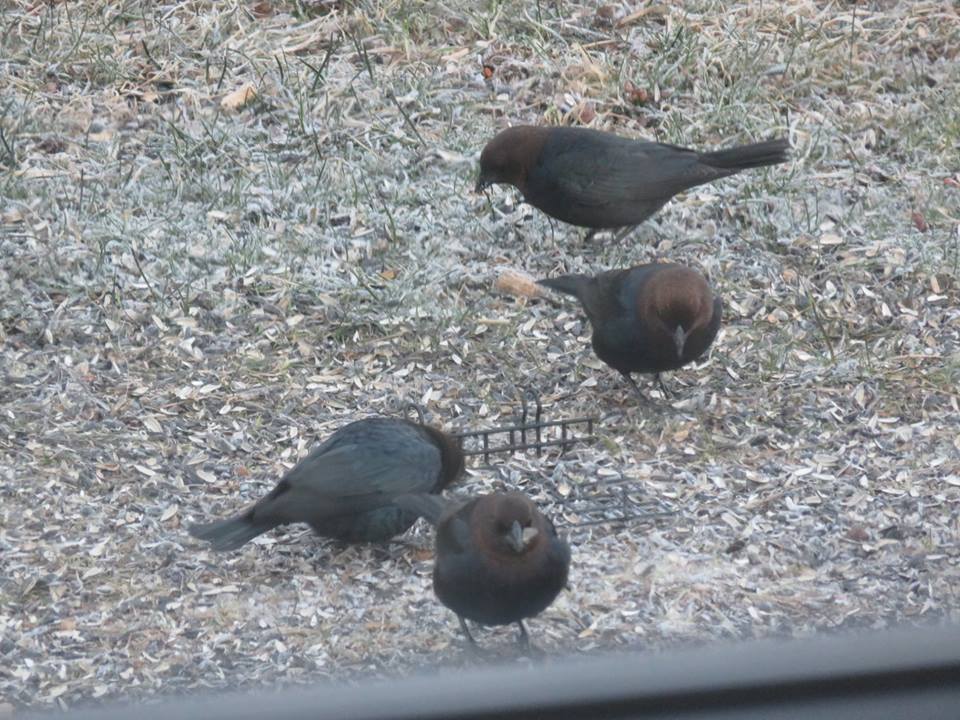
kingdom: Animalia
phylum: Chordata
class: Aves
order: Passeriformes
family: Icteridae
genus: Molothrus
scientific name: Molothrus ater
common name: Brown-headed cowbird
